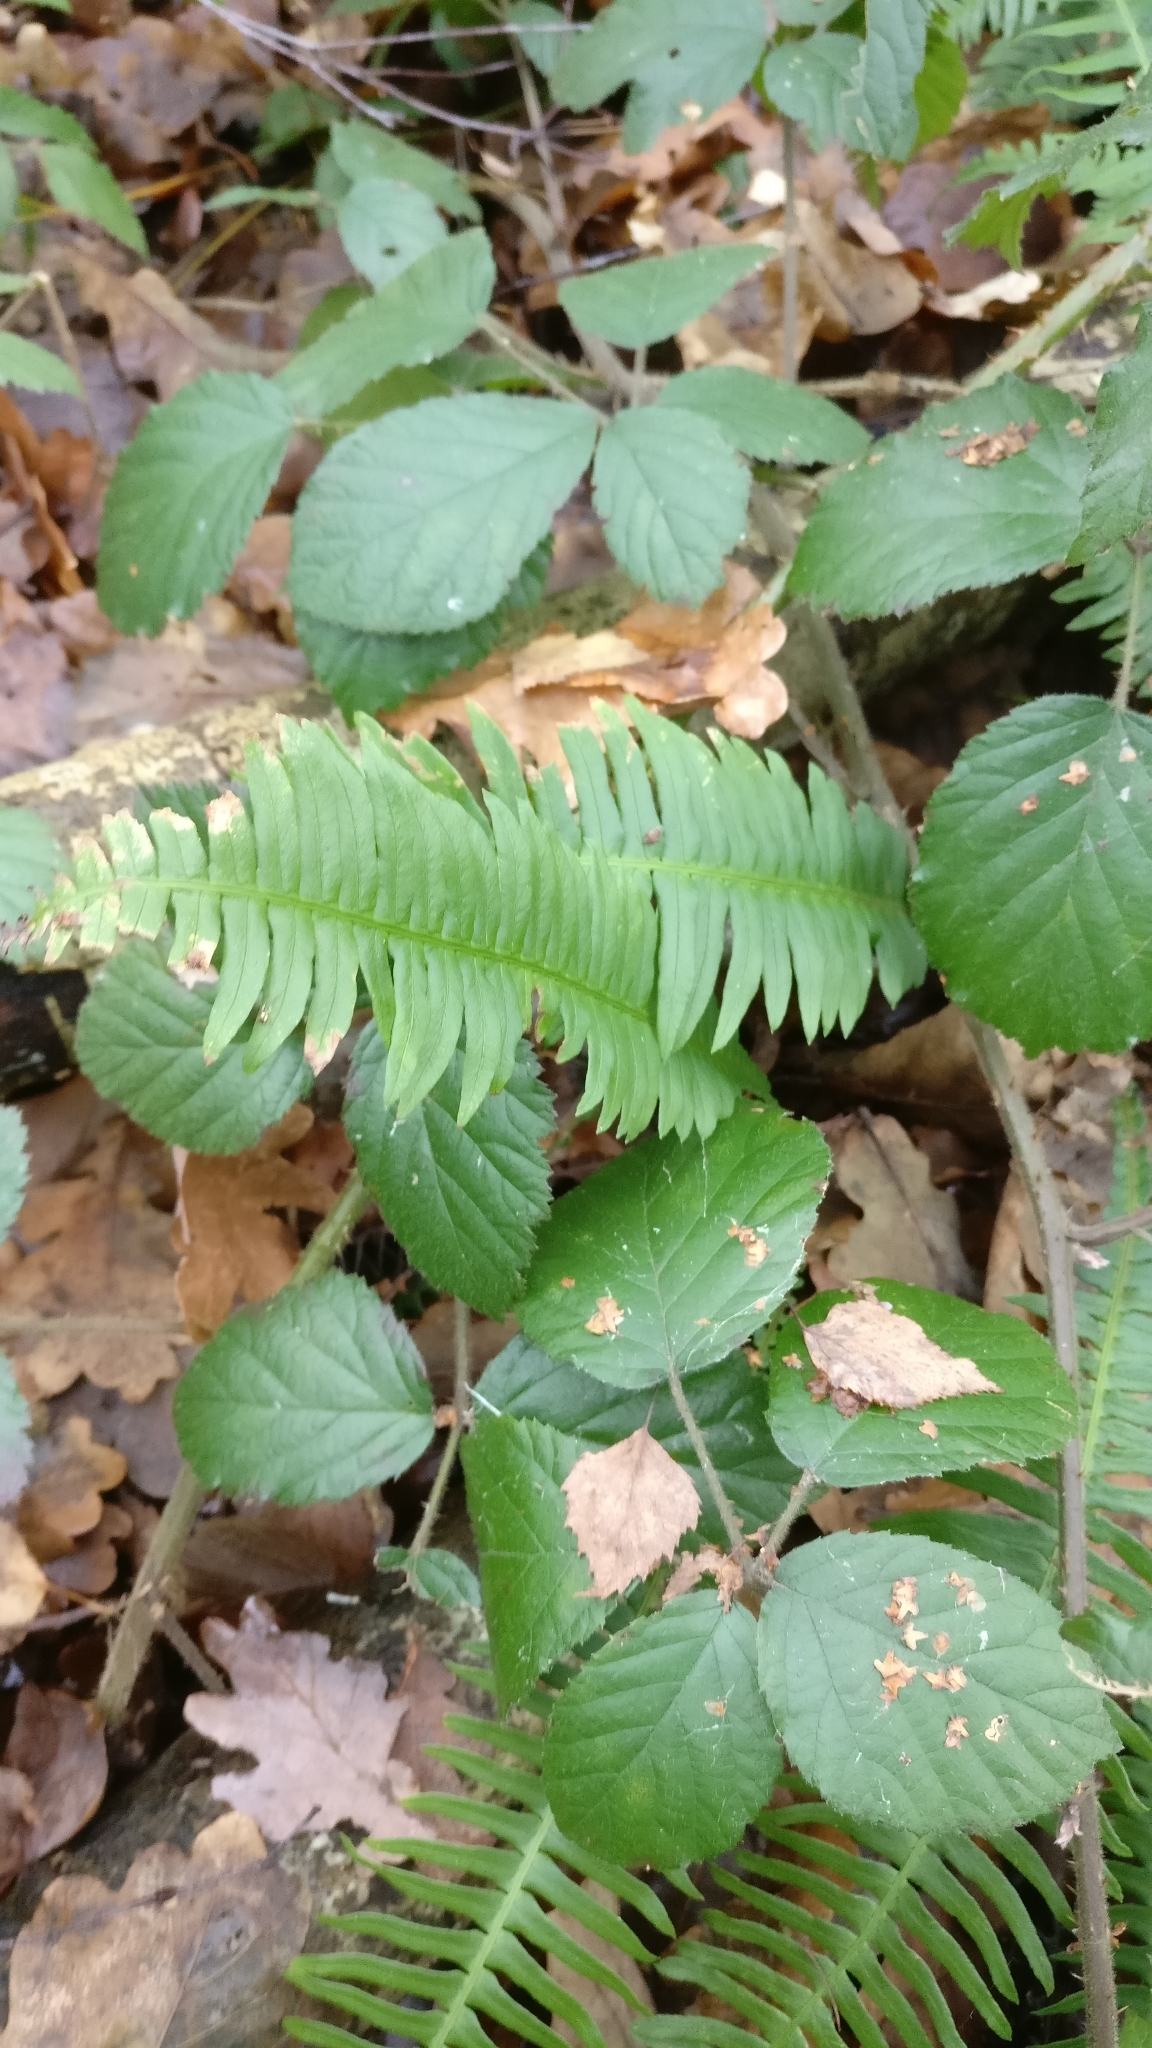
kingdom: Plantae
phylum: Tracheophyta
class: Polypodiopsida
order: Polypodiales
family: Blechnaceae
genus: Struthiopteris
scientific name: Struthiopteris spicant
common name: Deer fern
